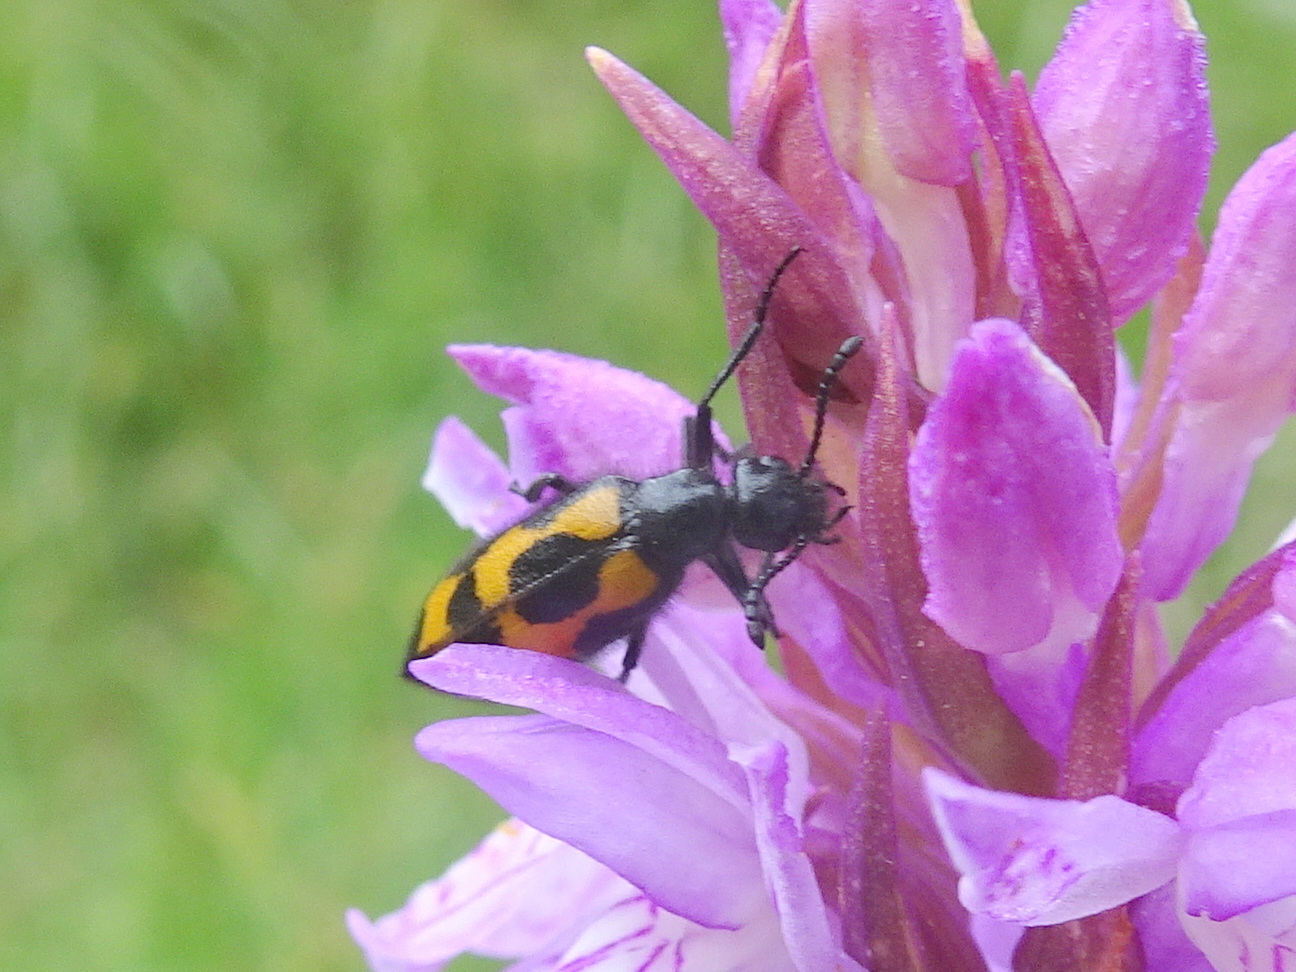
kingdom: Animalia
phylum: Arthropoda
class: Insecta
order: Coleoptera
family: Meloidae
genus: Mylabris
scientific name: Mylabris flexuosa
